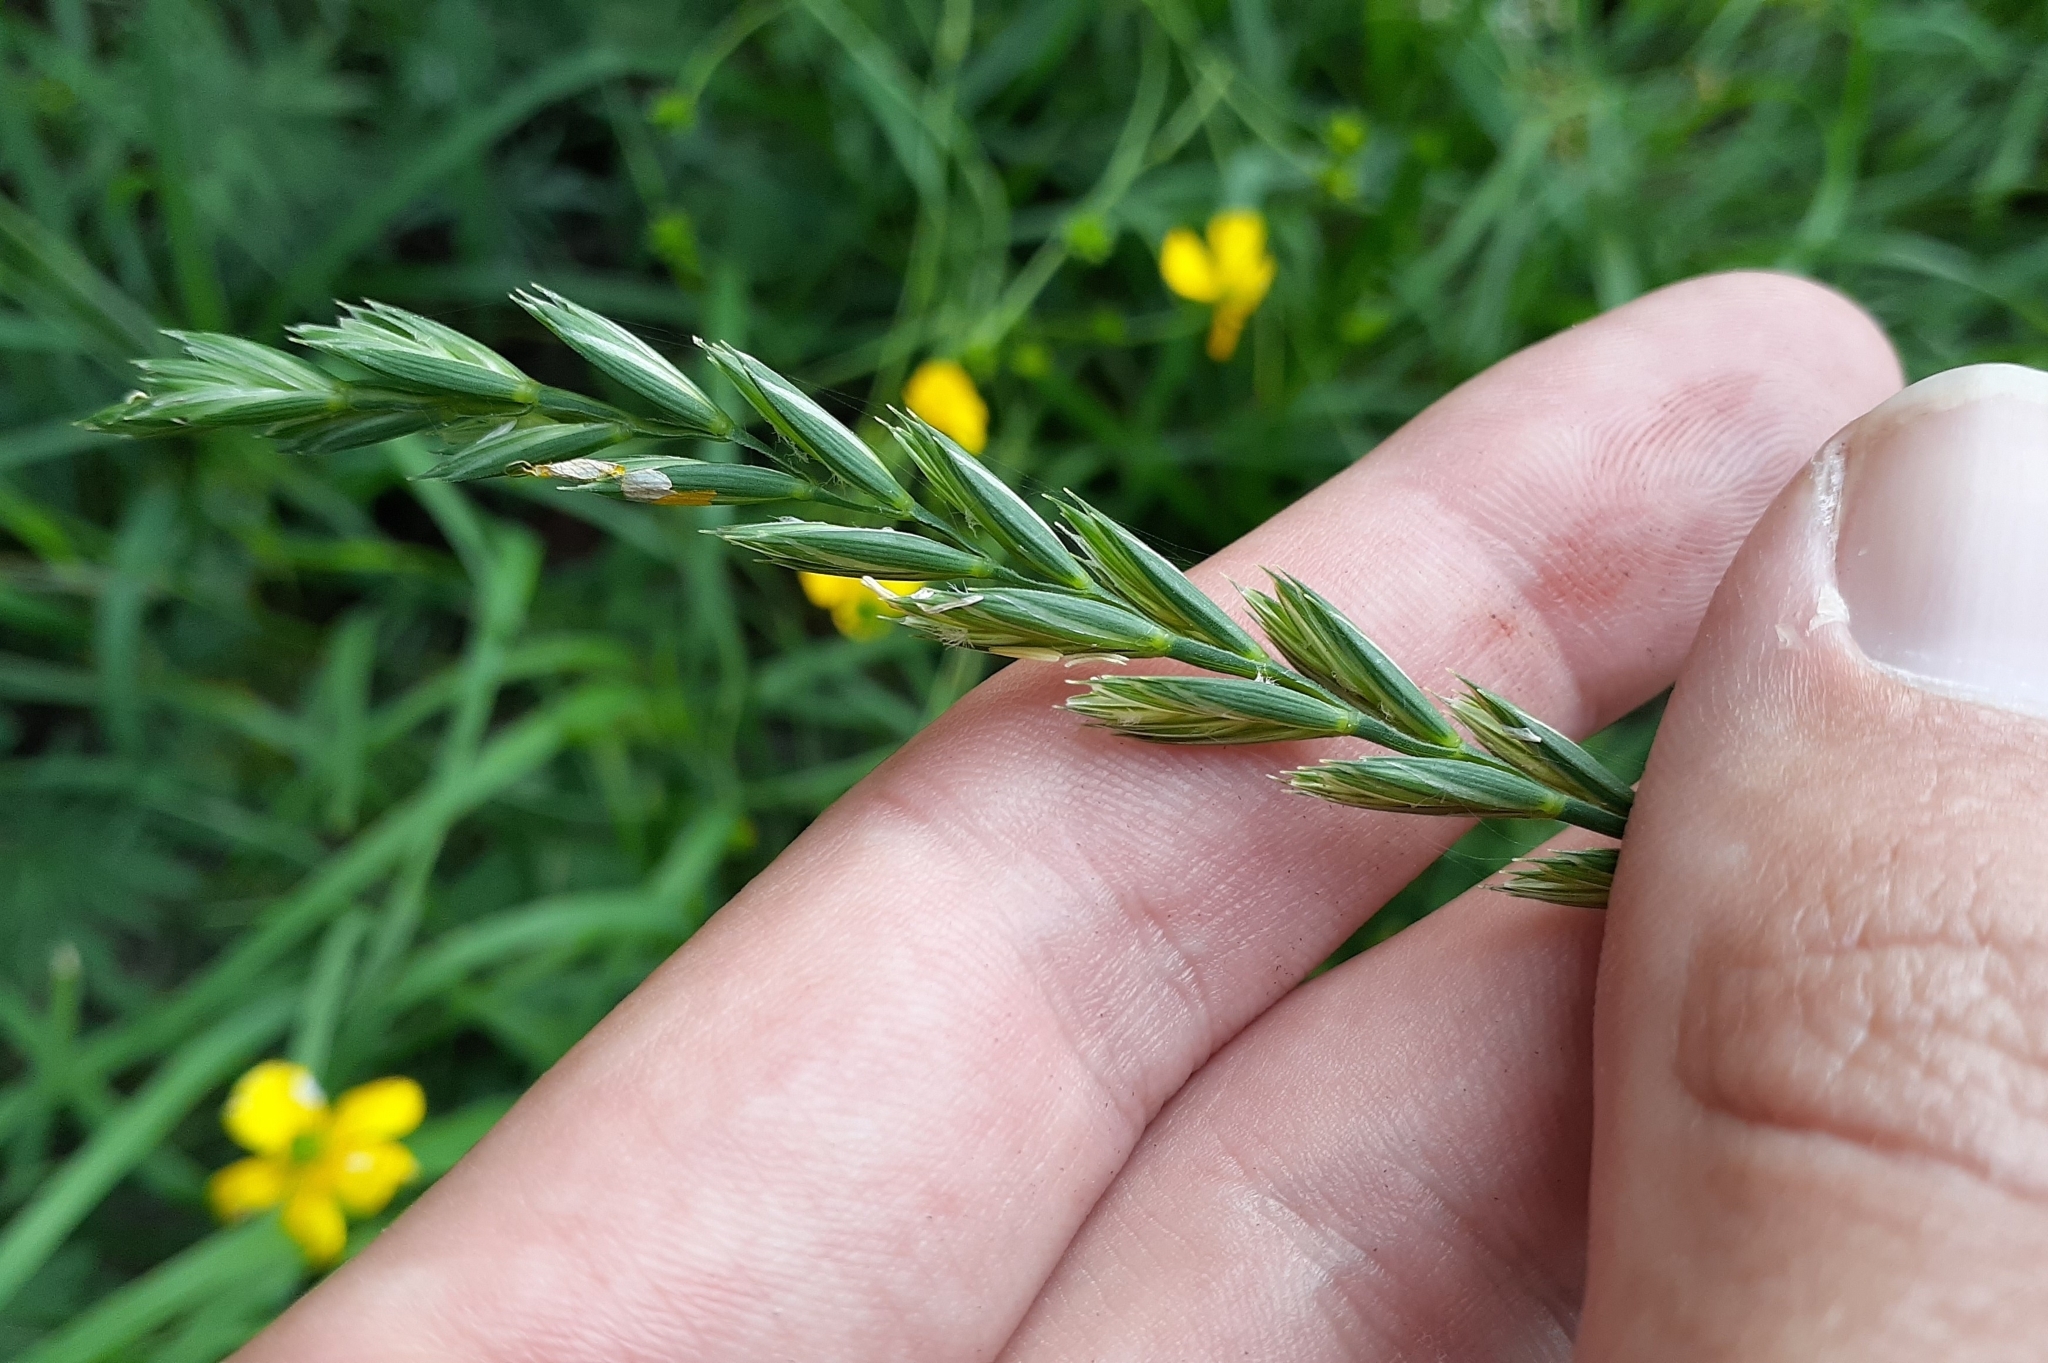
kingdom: Plantae
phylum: Tracheophyta
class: Liliopsida
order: Poales
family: Poaceae
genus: Elymus
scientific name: Elymus repens
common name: Quackgrass
